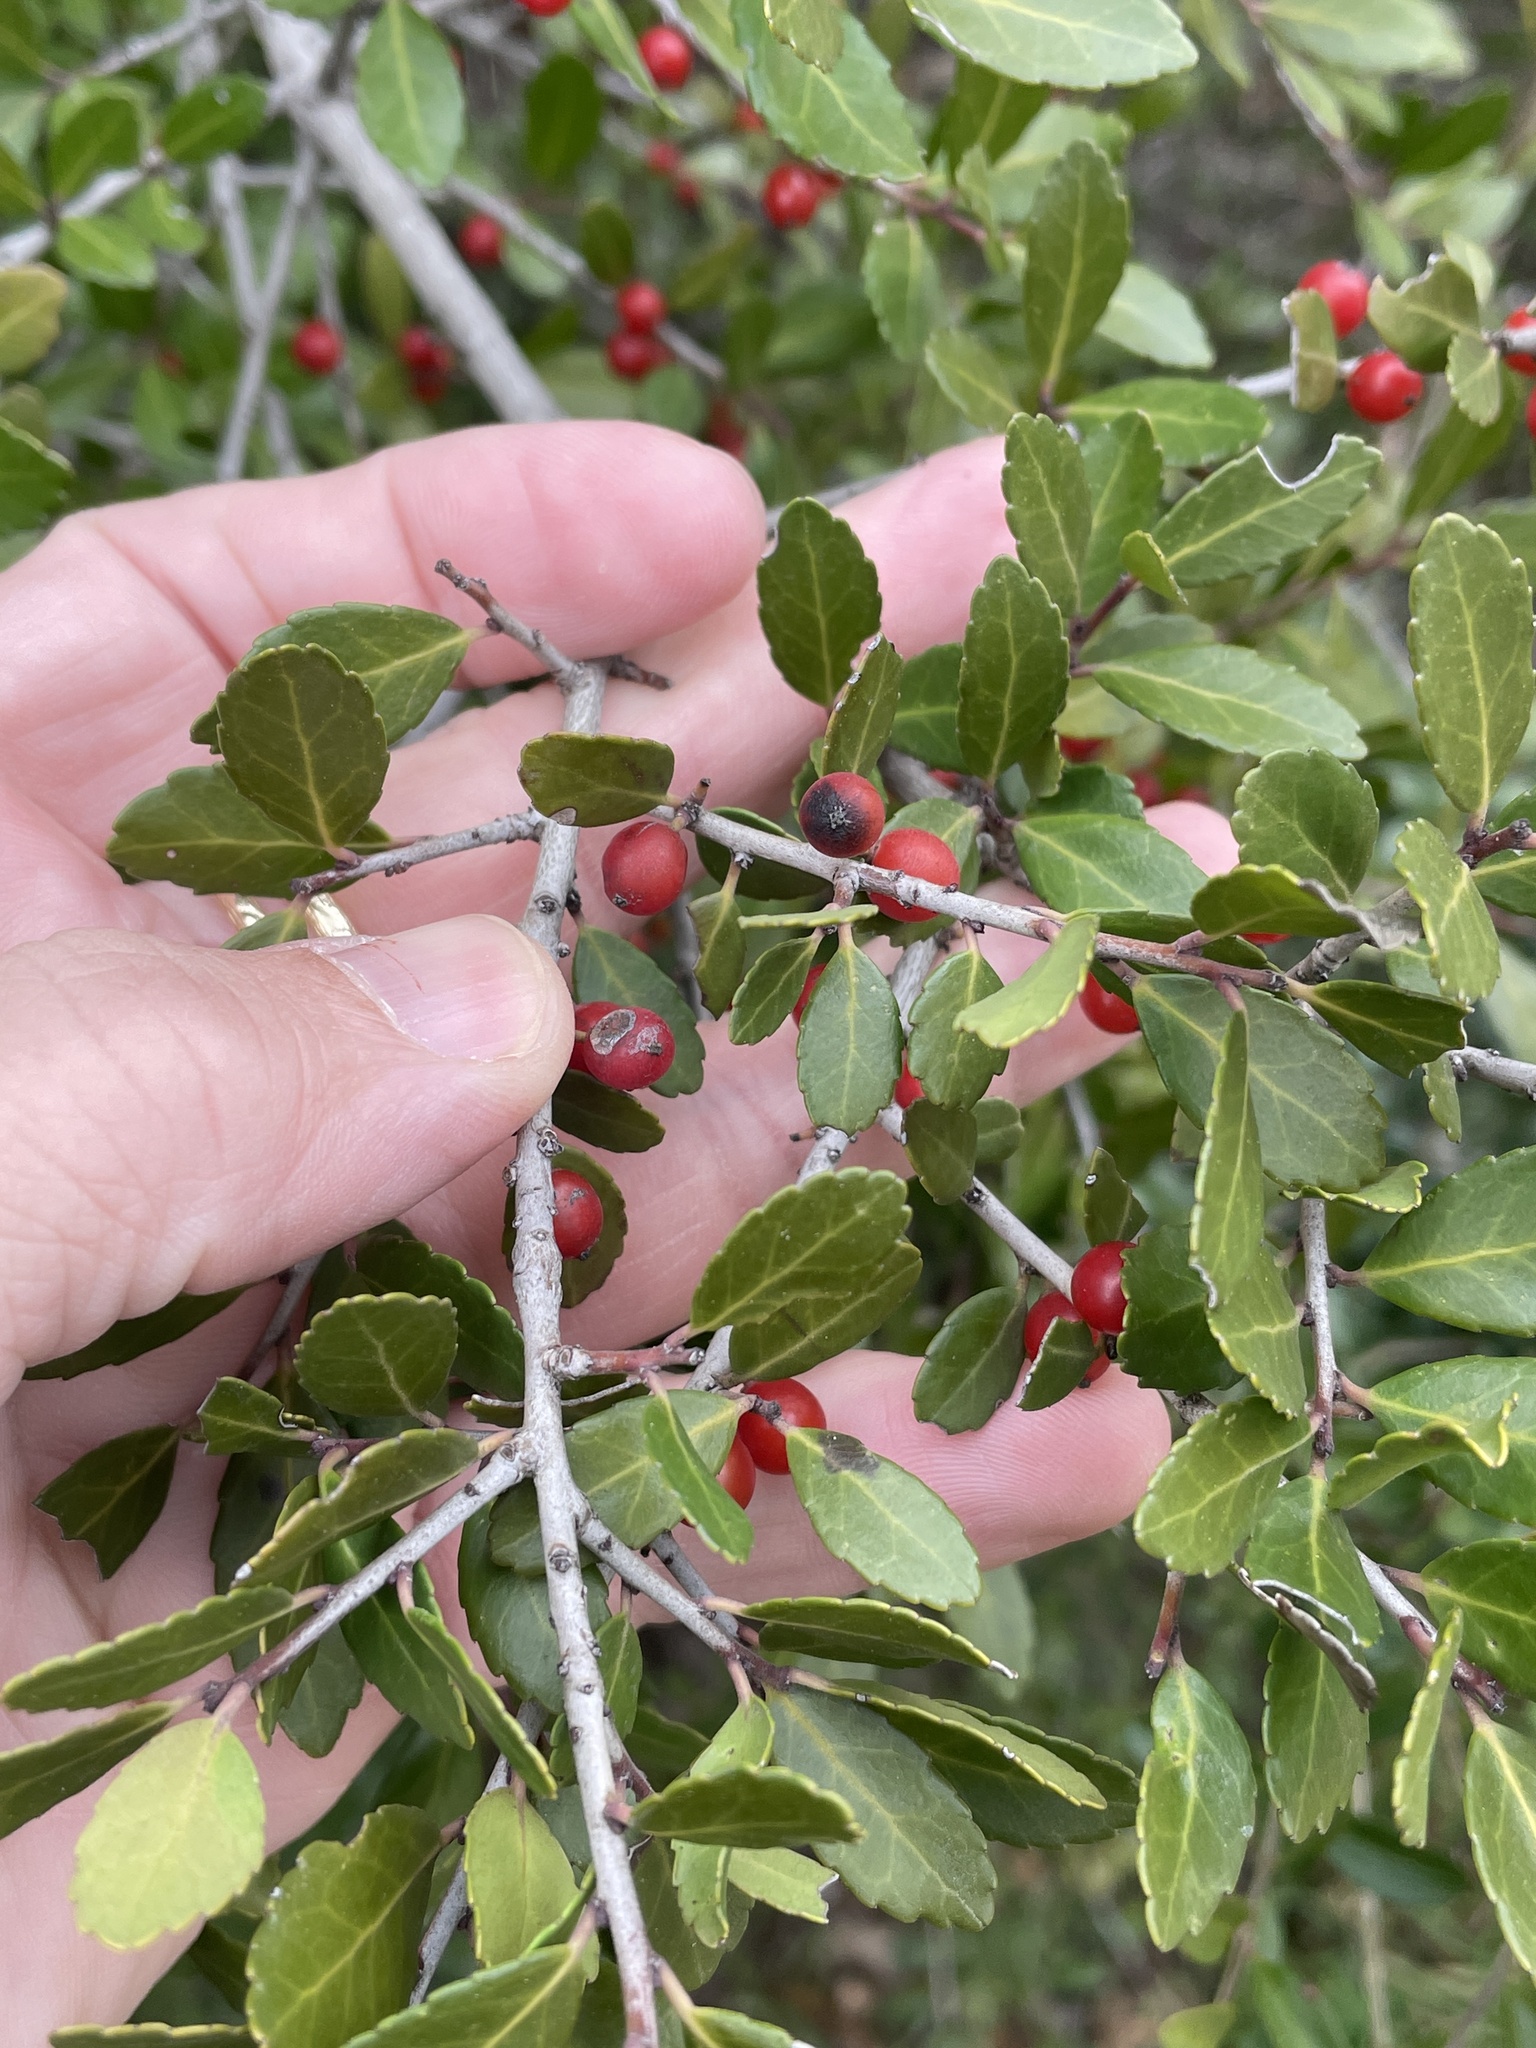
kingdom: Plantae
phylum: Tracheophyta
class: Magnoliopsida
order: Aquifoliales
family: Aquifoliaceae
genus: Ilex
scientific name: Ilex vomitoria
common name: Yaupon holly
